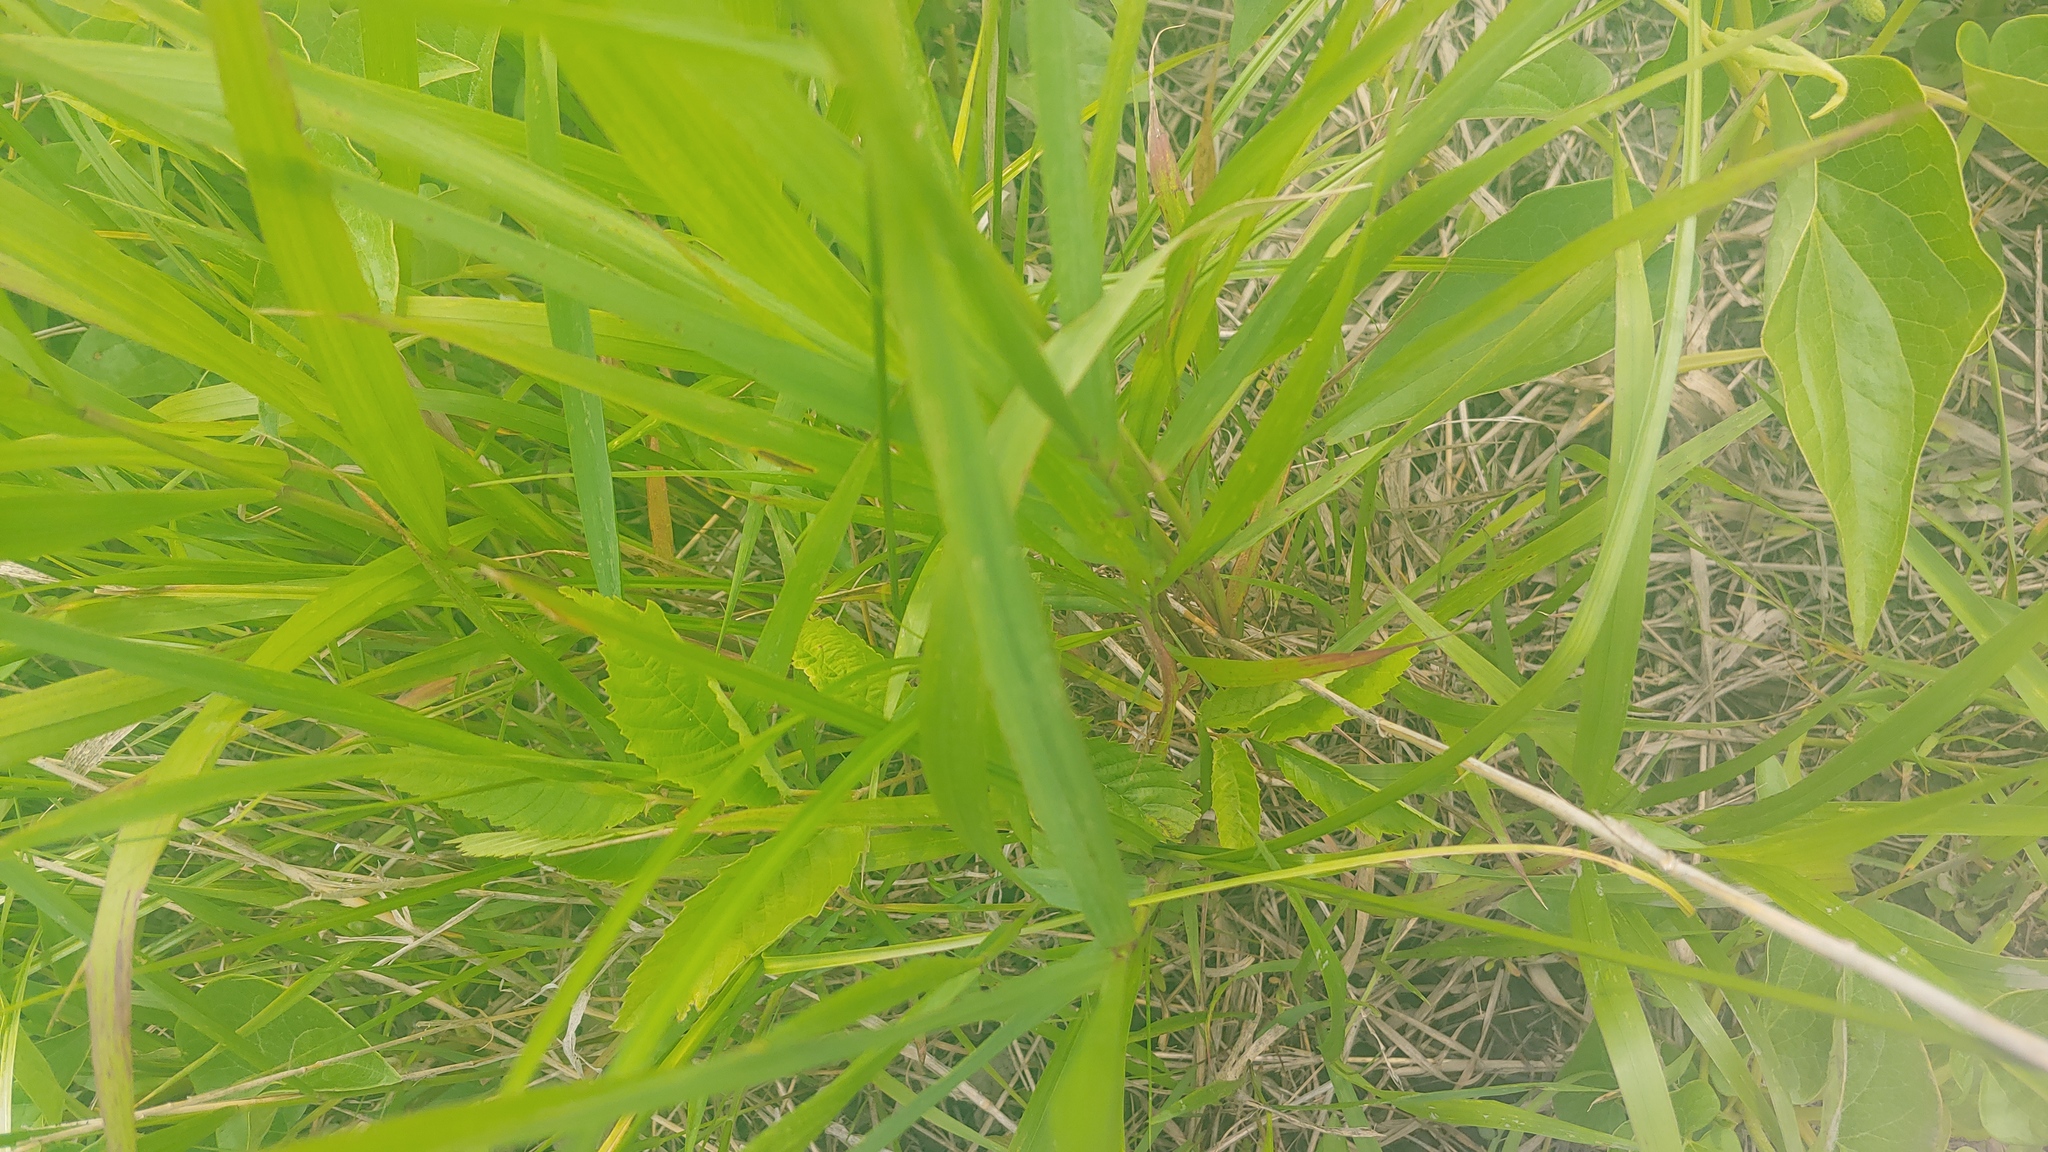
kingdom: Plantae
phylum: Tracheophyta
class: Liliopsida
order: Poales
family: Cyperaceae
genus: Carex
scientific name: Carex vulpinoidea
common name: American fox-sedge
